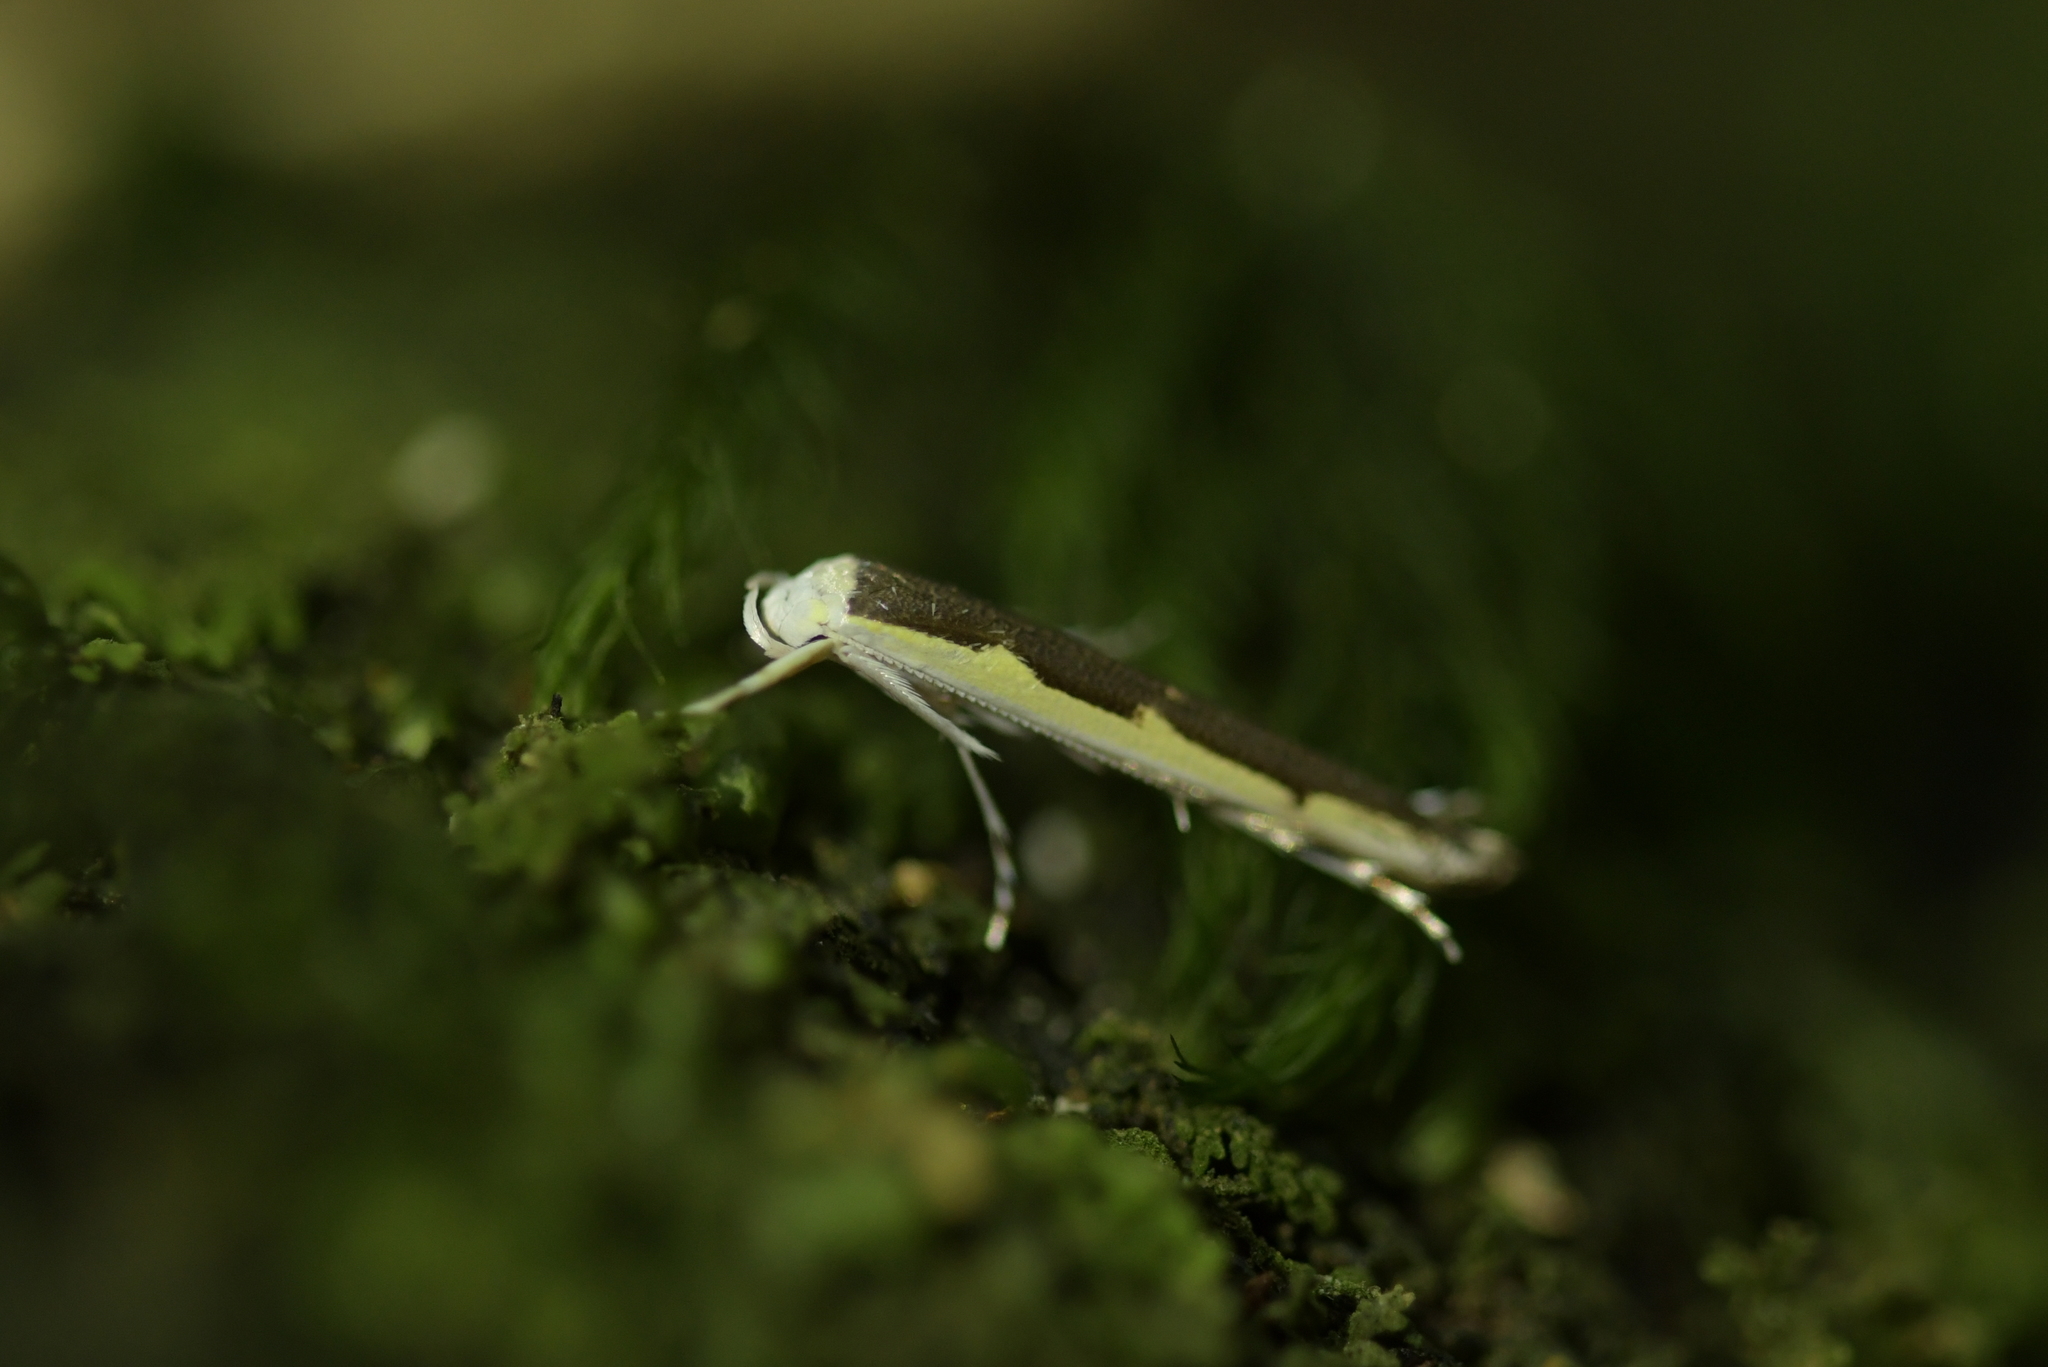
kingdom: Animalia
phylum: Arthropoda
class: Insecta
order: Lepidoptera
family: Roeslerstammiidae
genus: Vanicela
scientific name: Vanicela disjunctella
